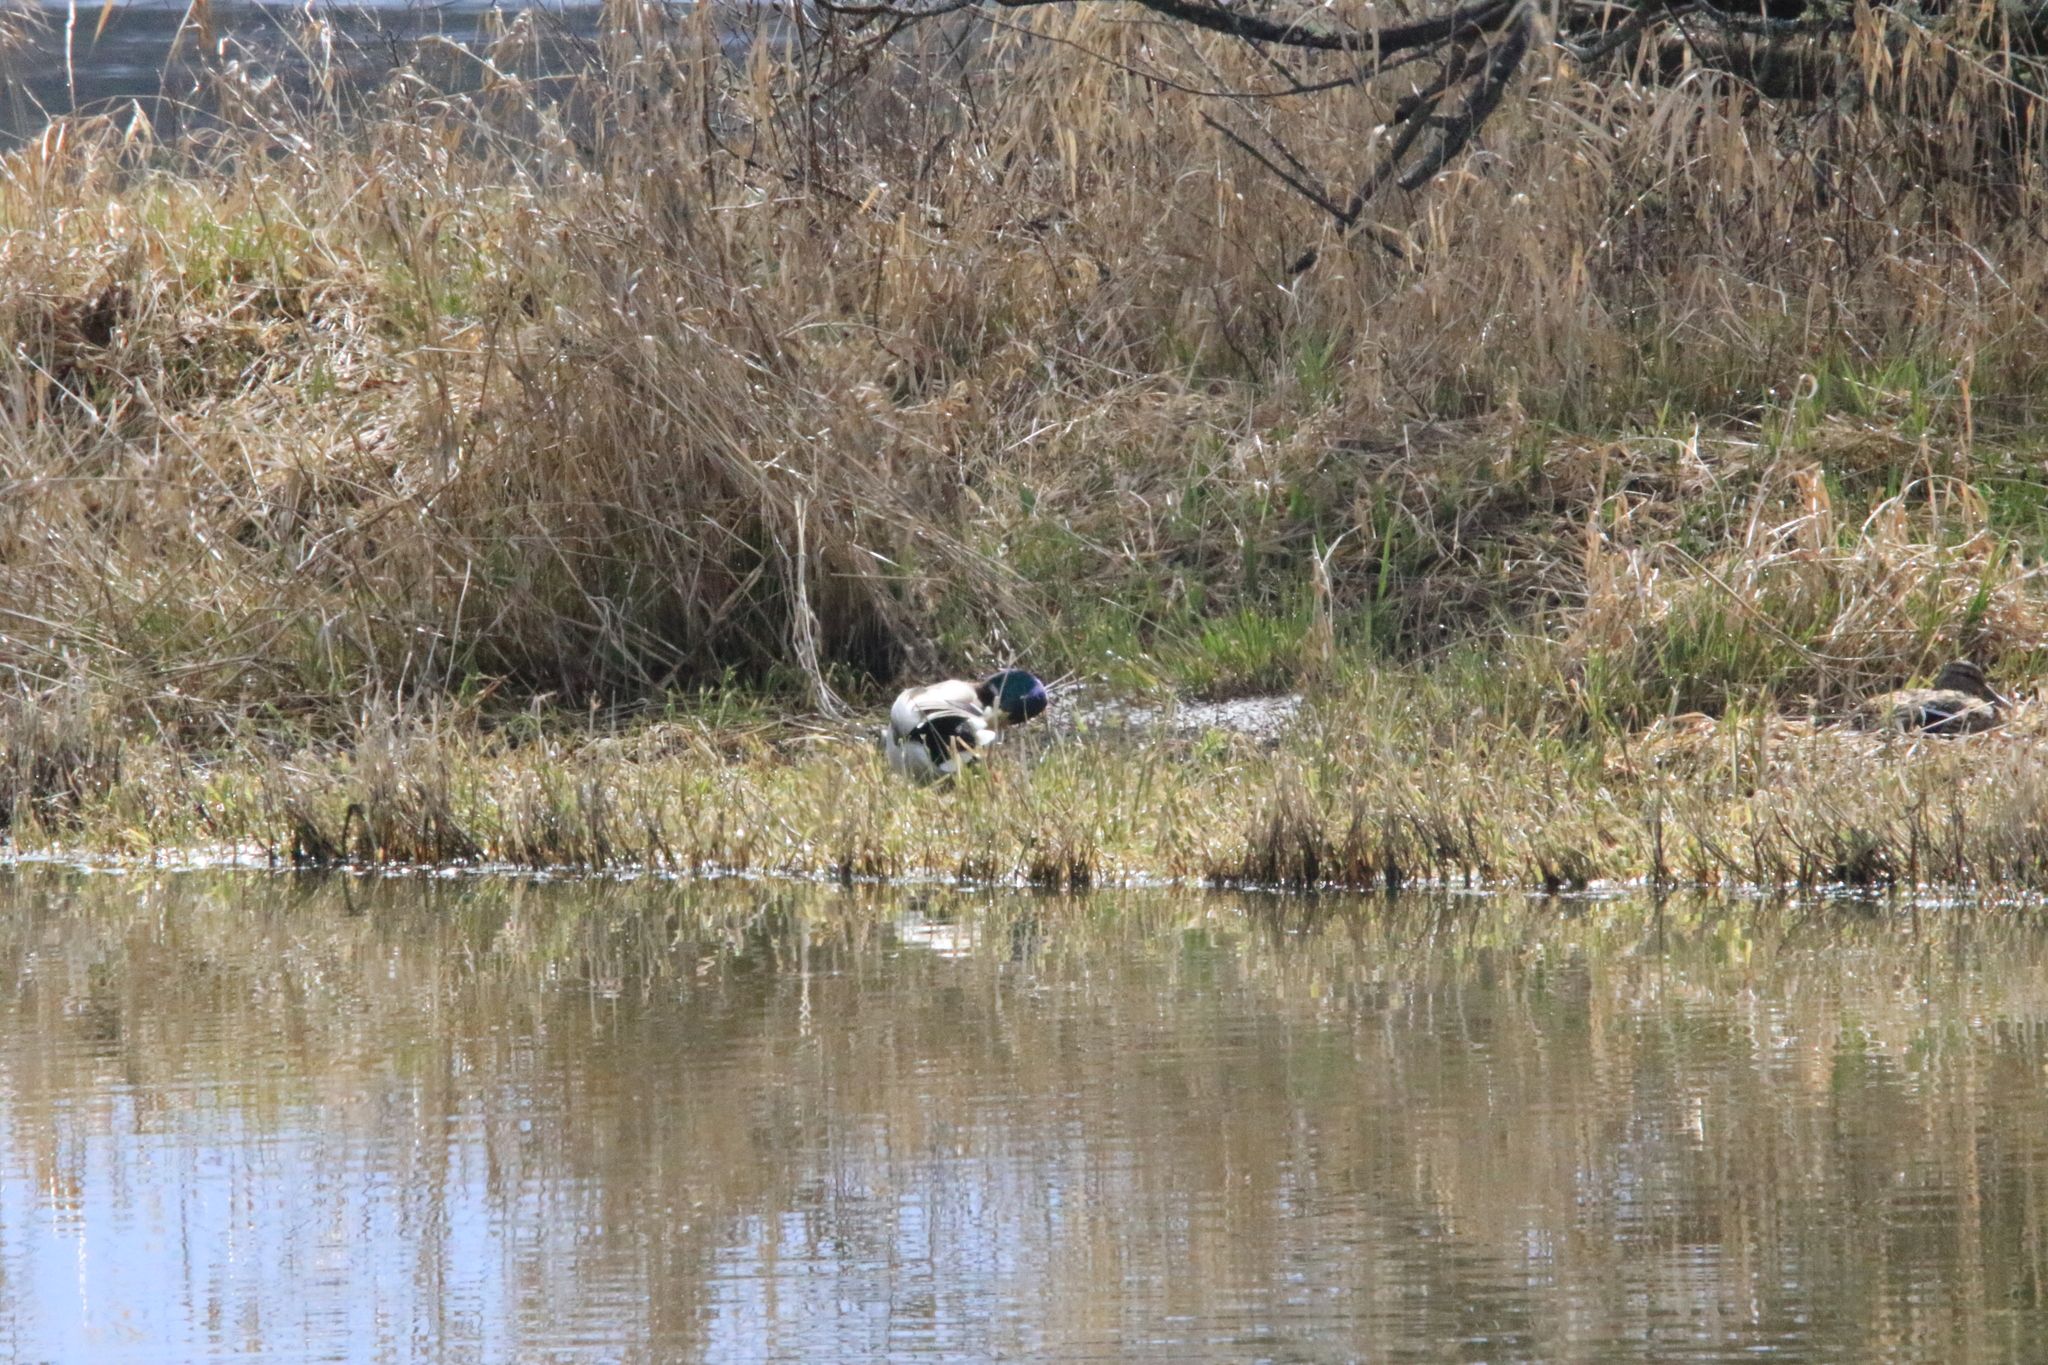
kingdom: Animalia
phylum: Chordata
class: Aves
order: Anseriformes
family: Anatidae
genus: Anas
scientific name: Anas platyrhynchos
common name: Mallard
